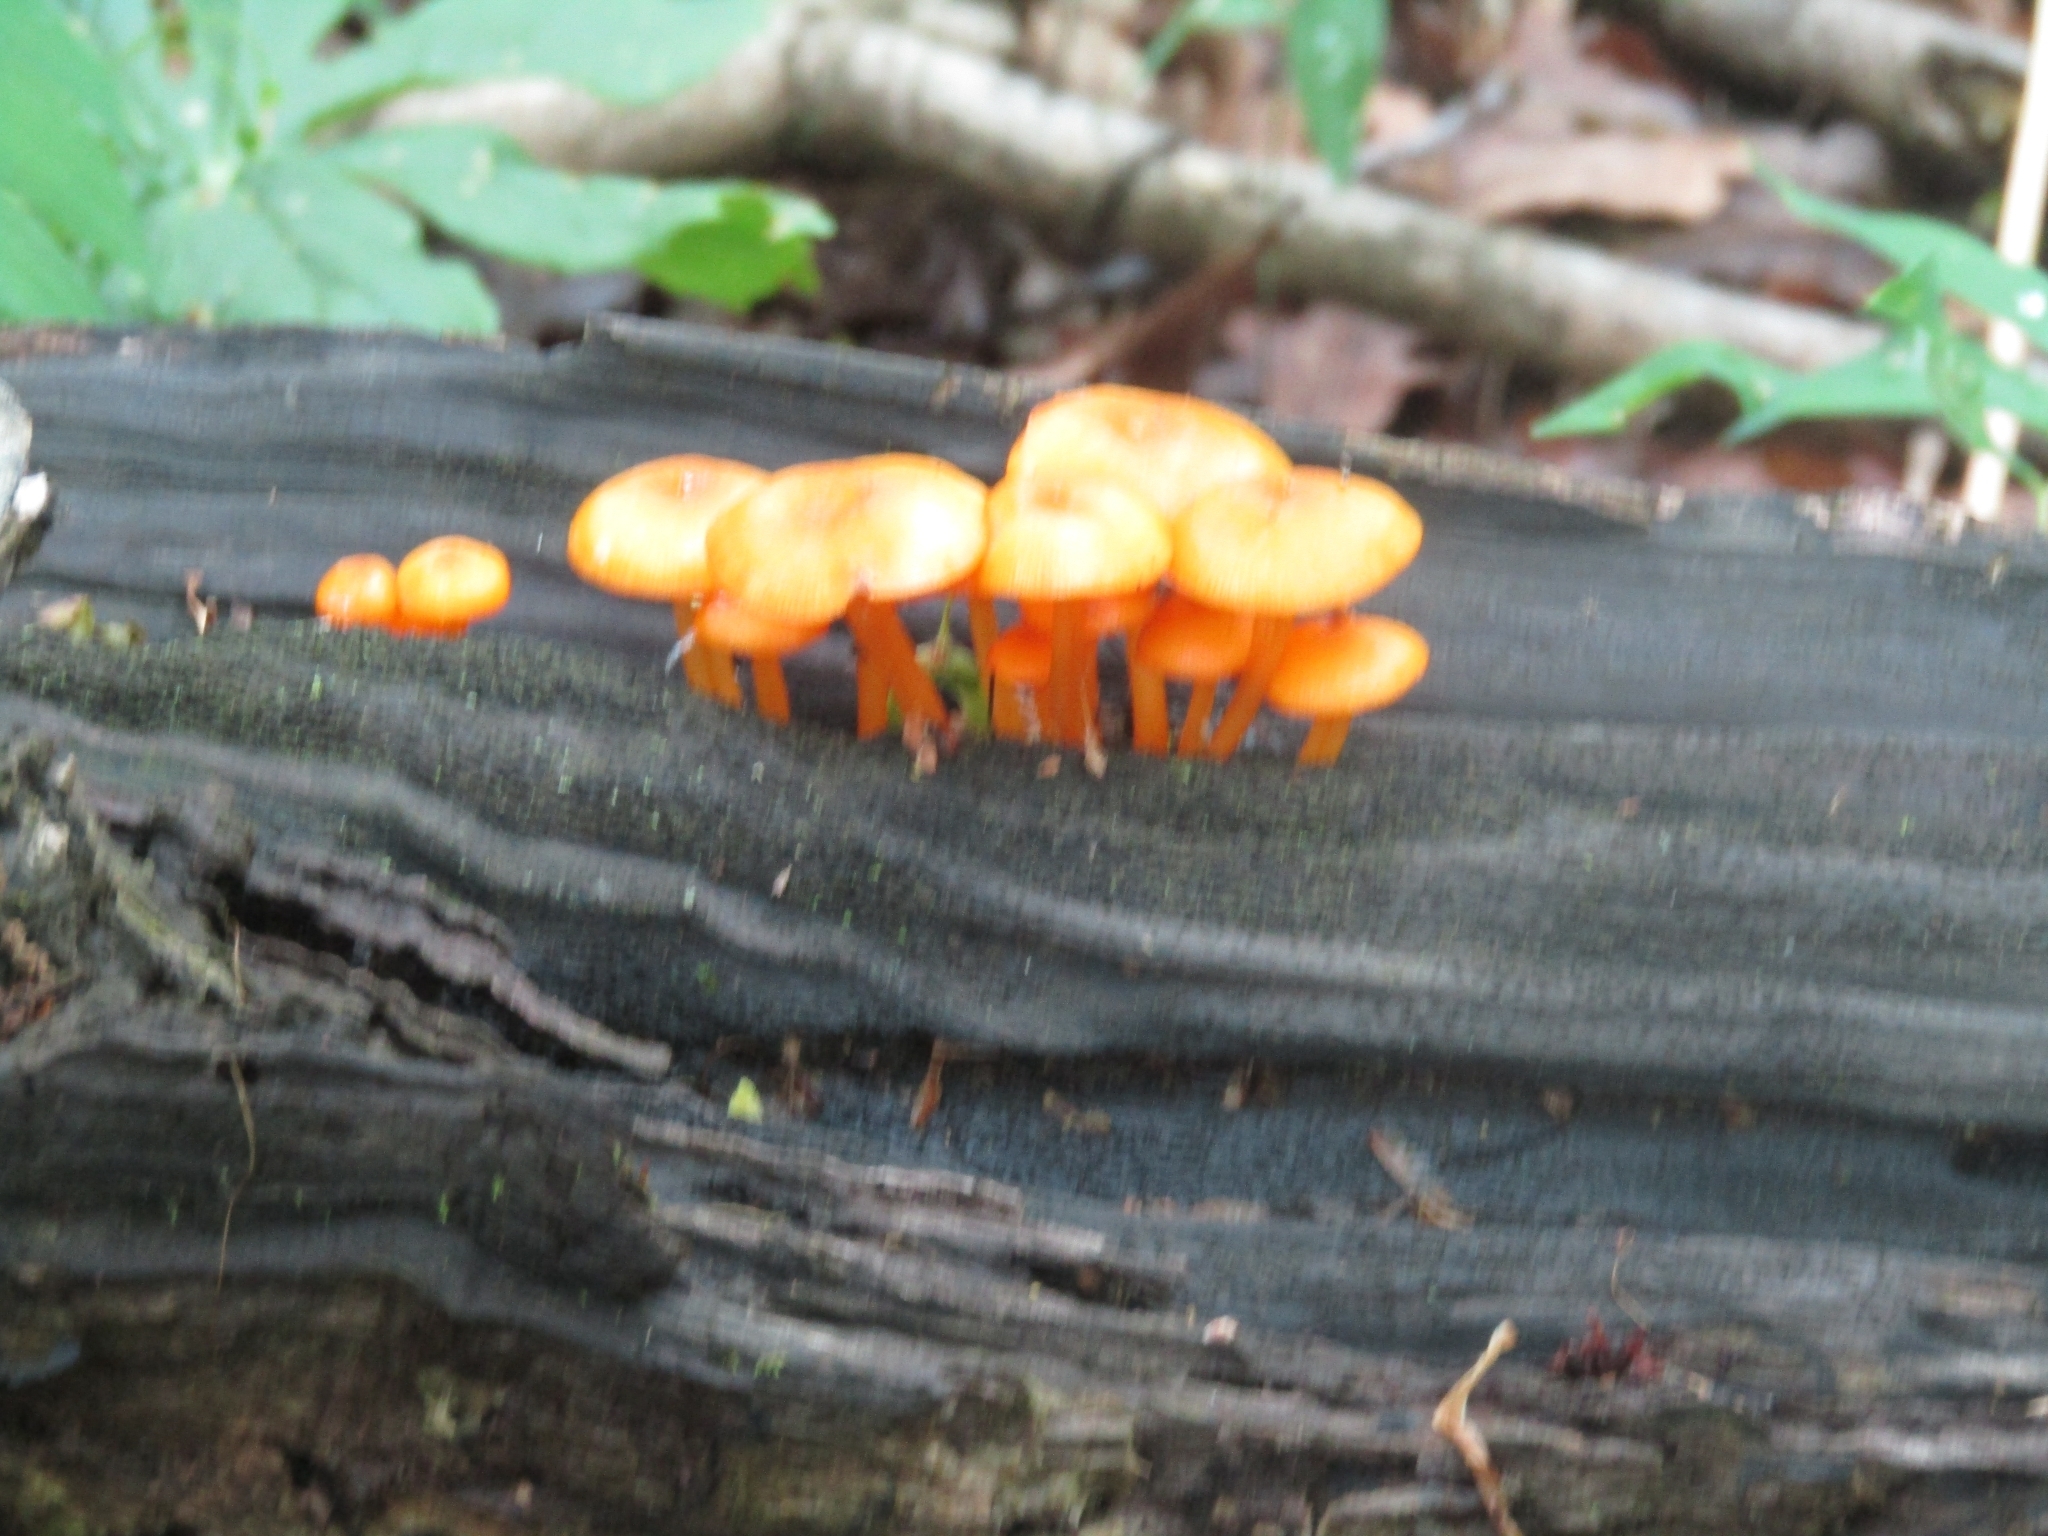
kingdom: Fungi
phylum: Basidiomycota
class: Agaricomycetes
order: Agaricales
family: Mycenaceae
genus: Mycena
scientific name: Mycena leaiana
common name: Orange mycena
